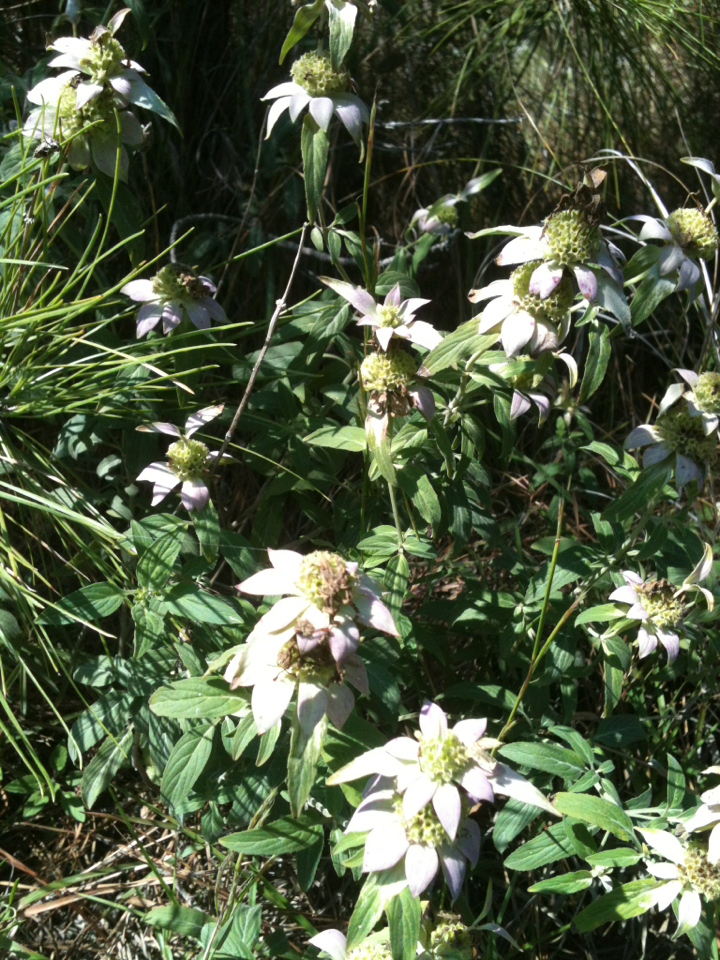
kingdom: Plantae
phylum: Tracheophyta
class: Magnoliopsida
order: Lamiales
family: Lamiaceae
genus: Monarda
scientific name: Monarda punctata
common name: Dotted monarda
